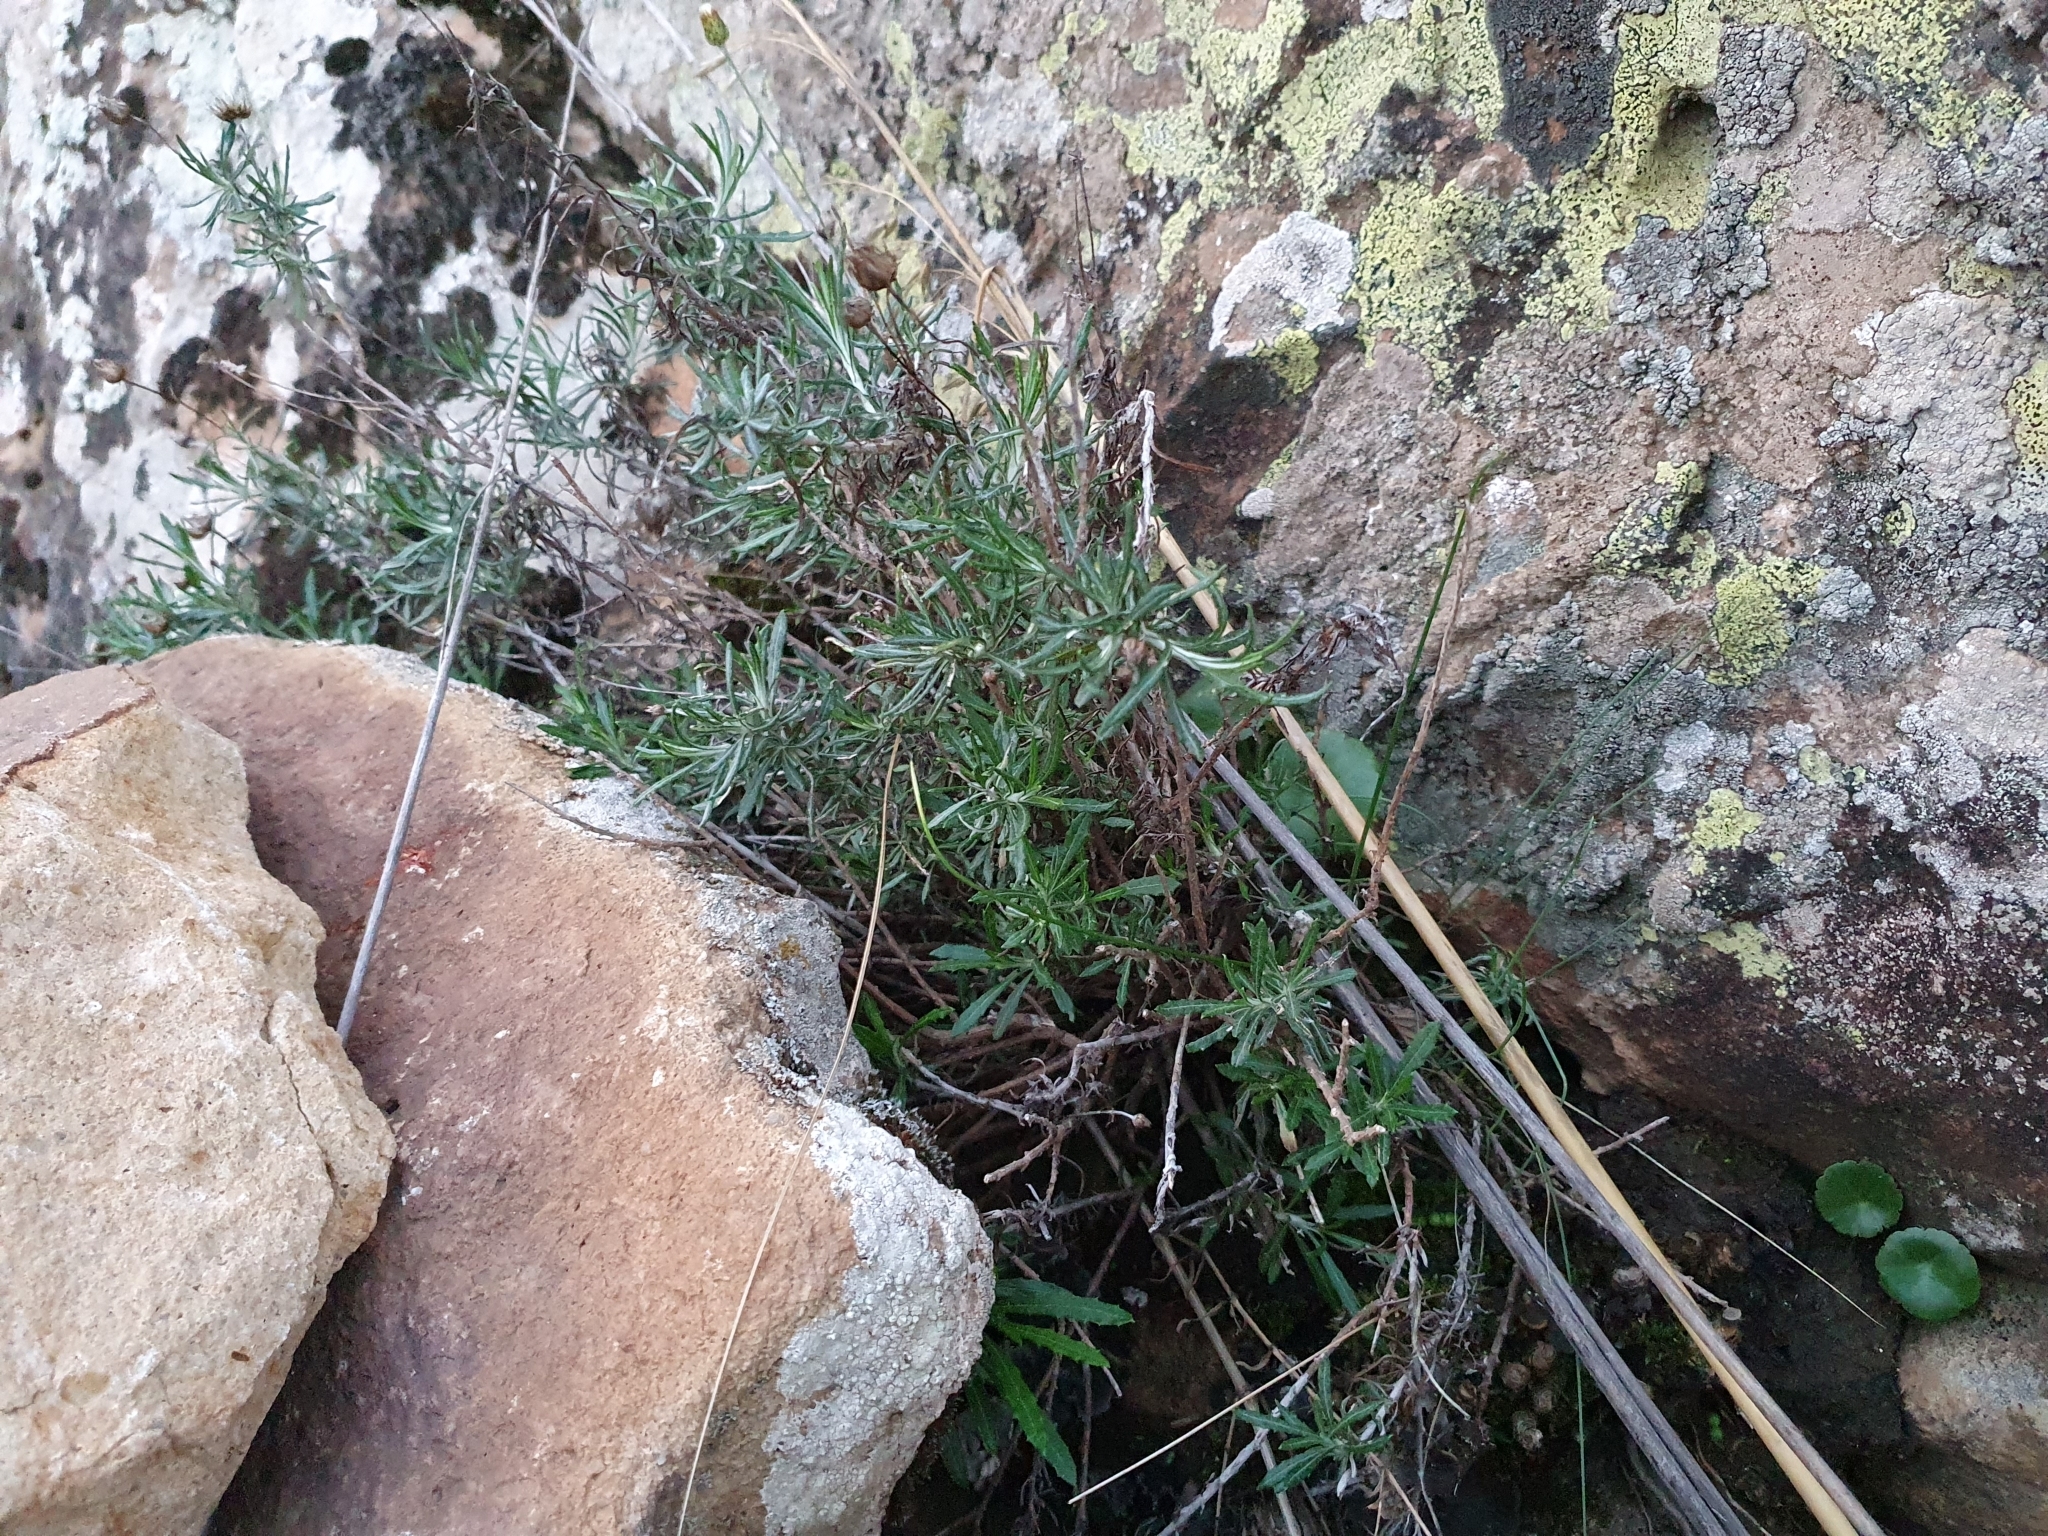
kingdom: Plantae
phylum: Tracheophyta
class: Magnoliopsida
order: Asterales
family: Asteraceae
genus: Phagnalon
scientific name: Phagnalon saxatile
